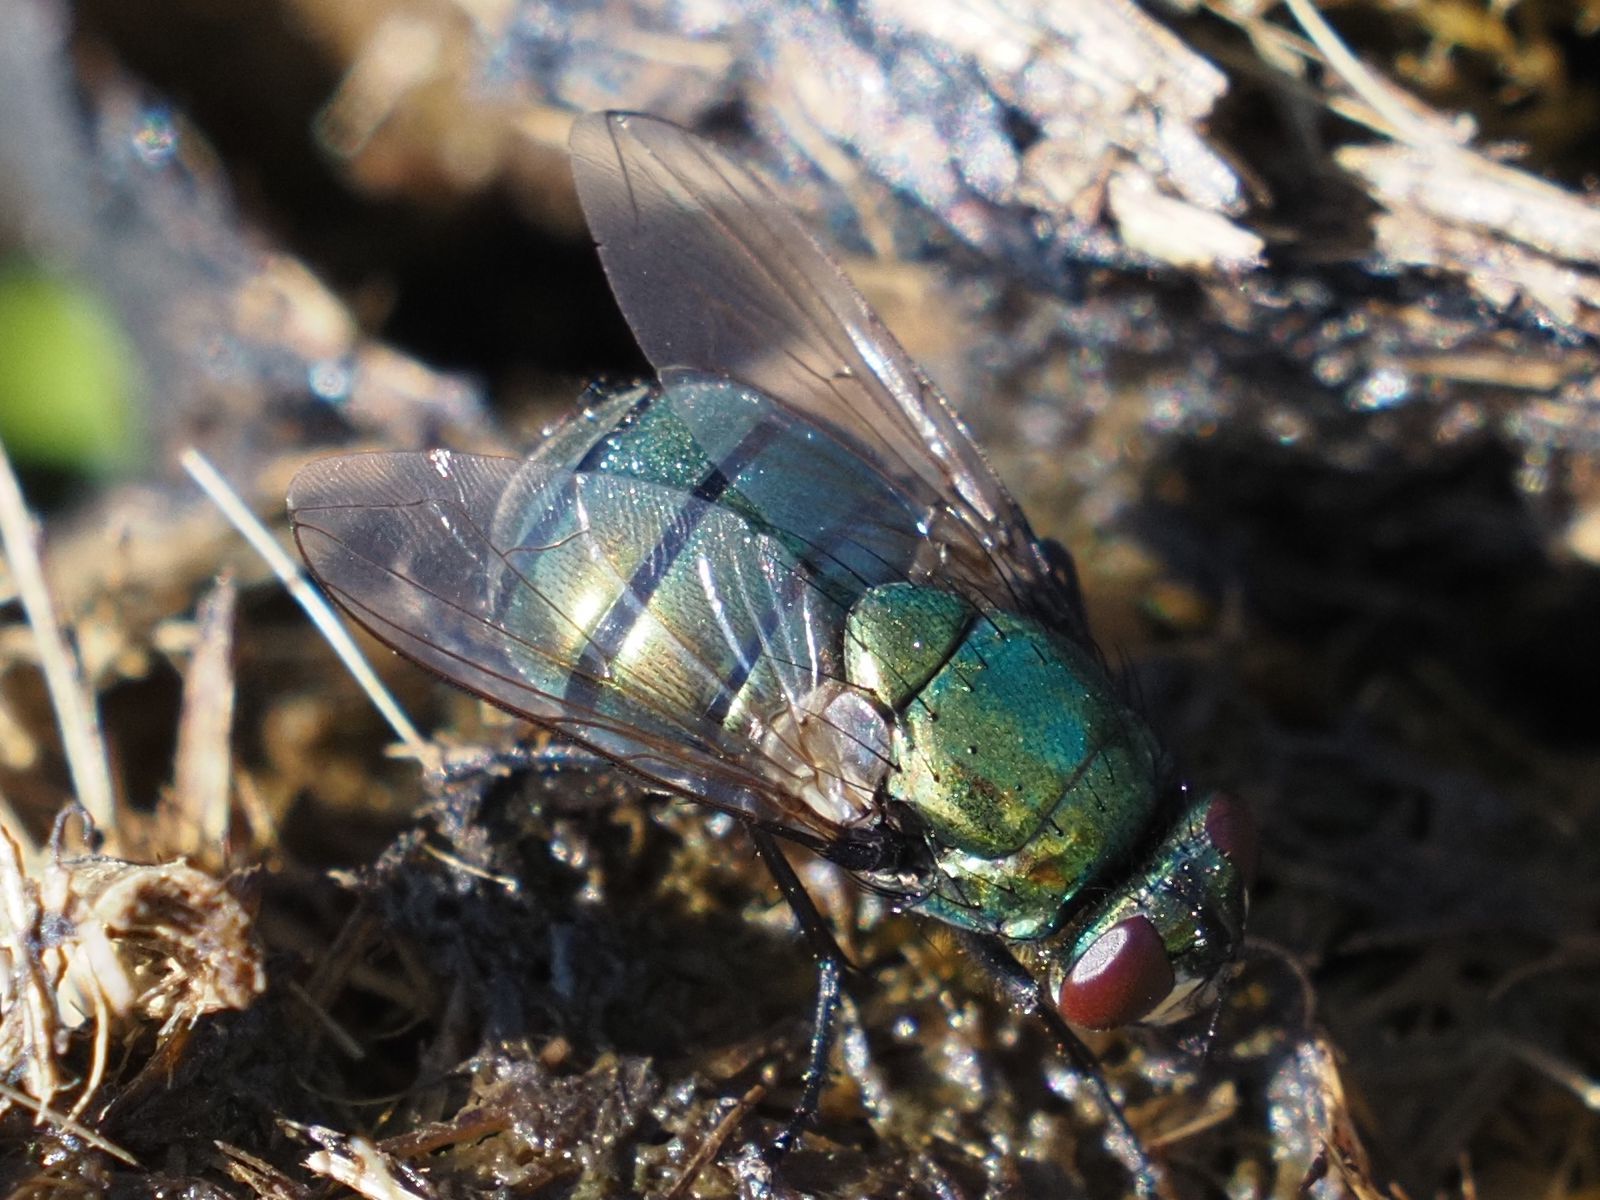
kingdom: Animalia
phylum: Arthropoda
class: Insecta
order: Diptera
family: Muscidae
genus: Neomyia
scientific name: Neomyia cornicina
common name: House fly
